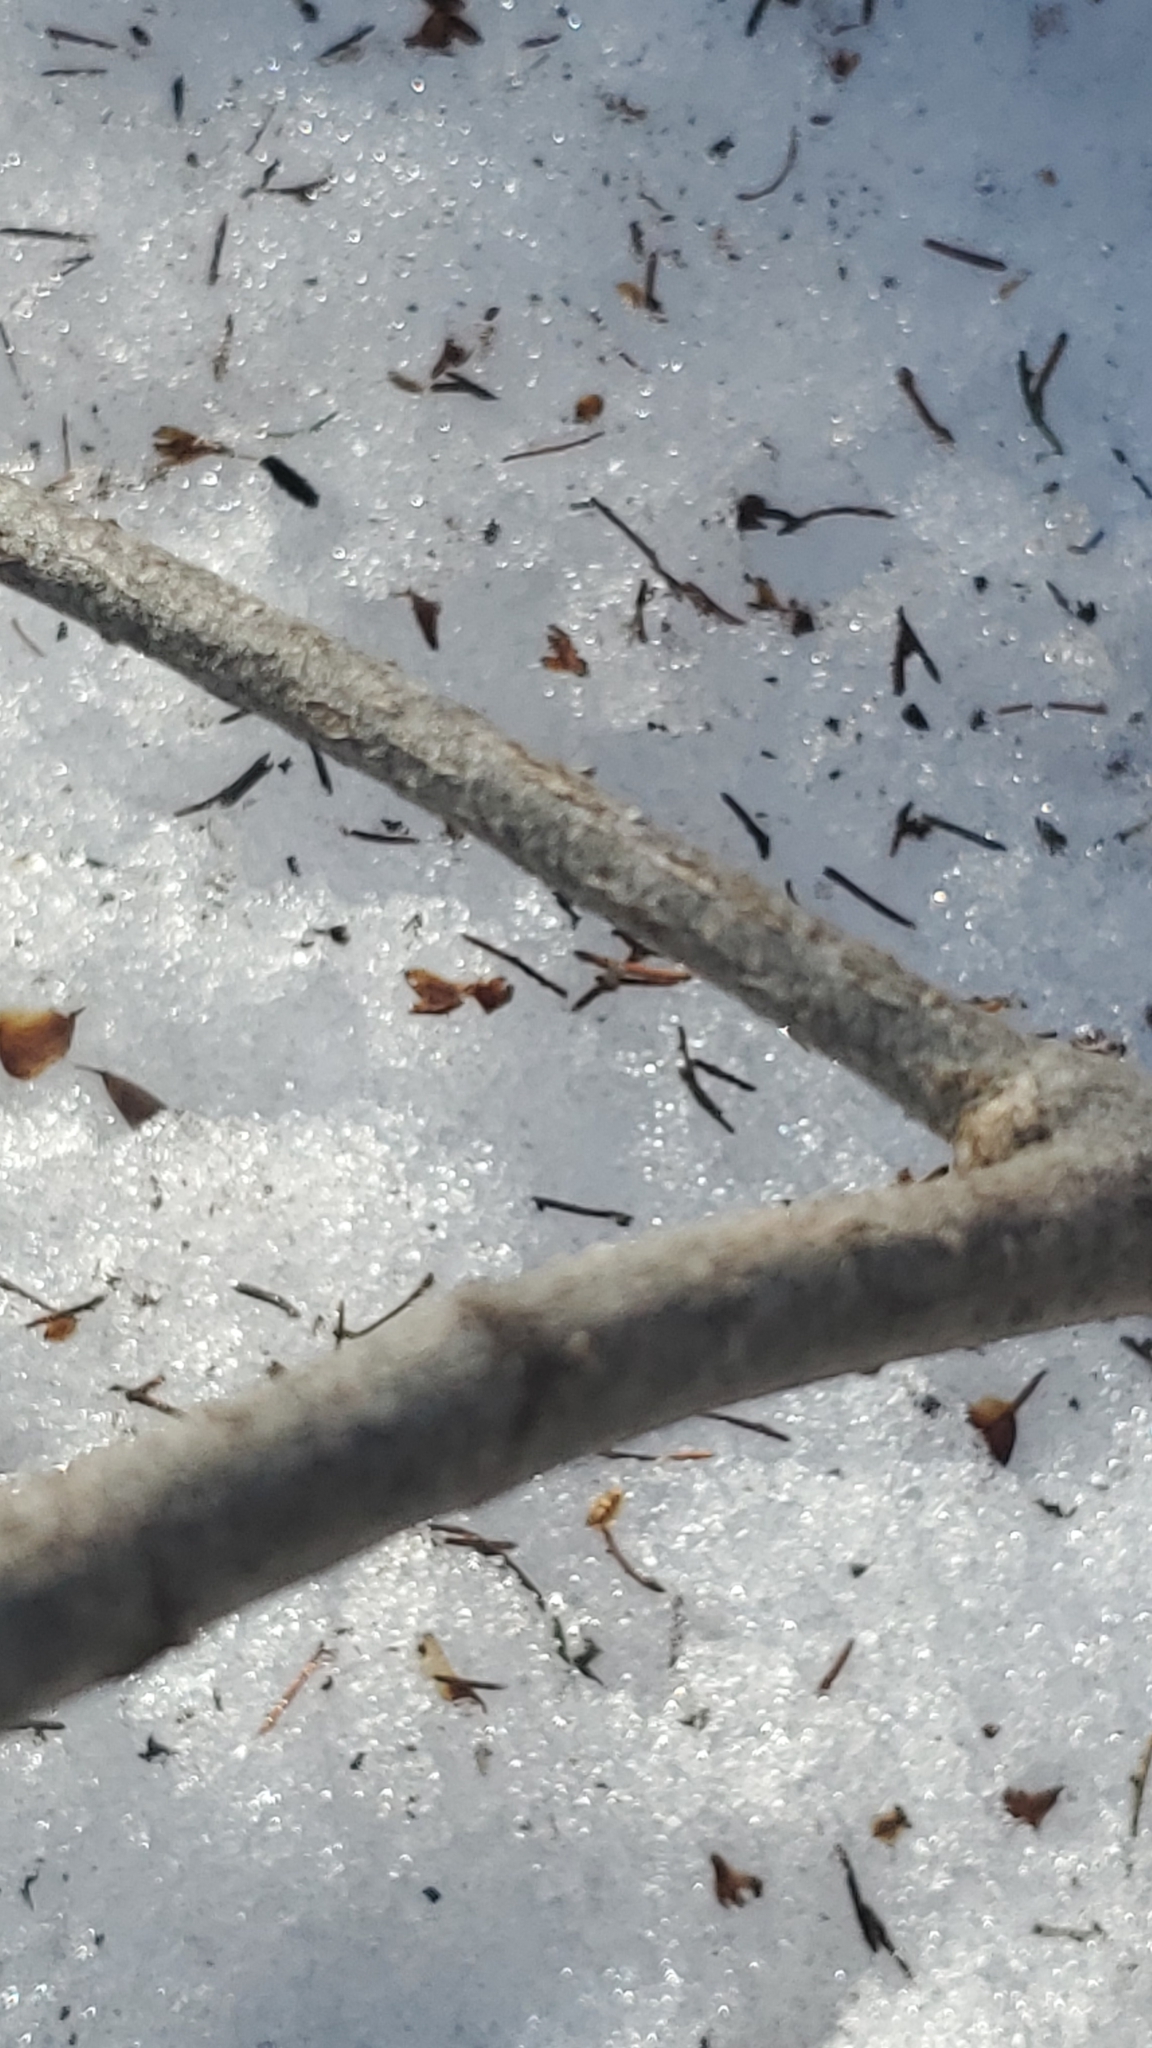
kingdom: Plantae
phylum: Tracheophyta
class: Magnoliopsida
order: Dipsacales
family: Viburnaceae
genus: Viburnum
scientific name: Viburnum lantanoides
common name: Hobblebush
